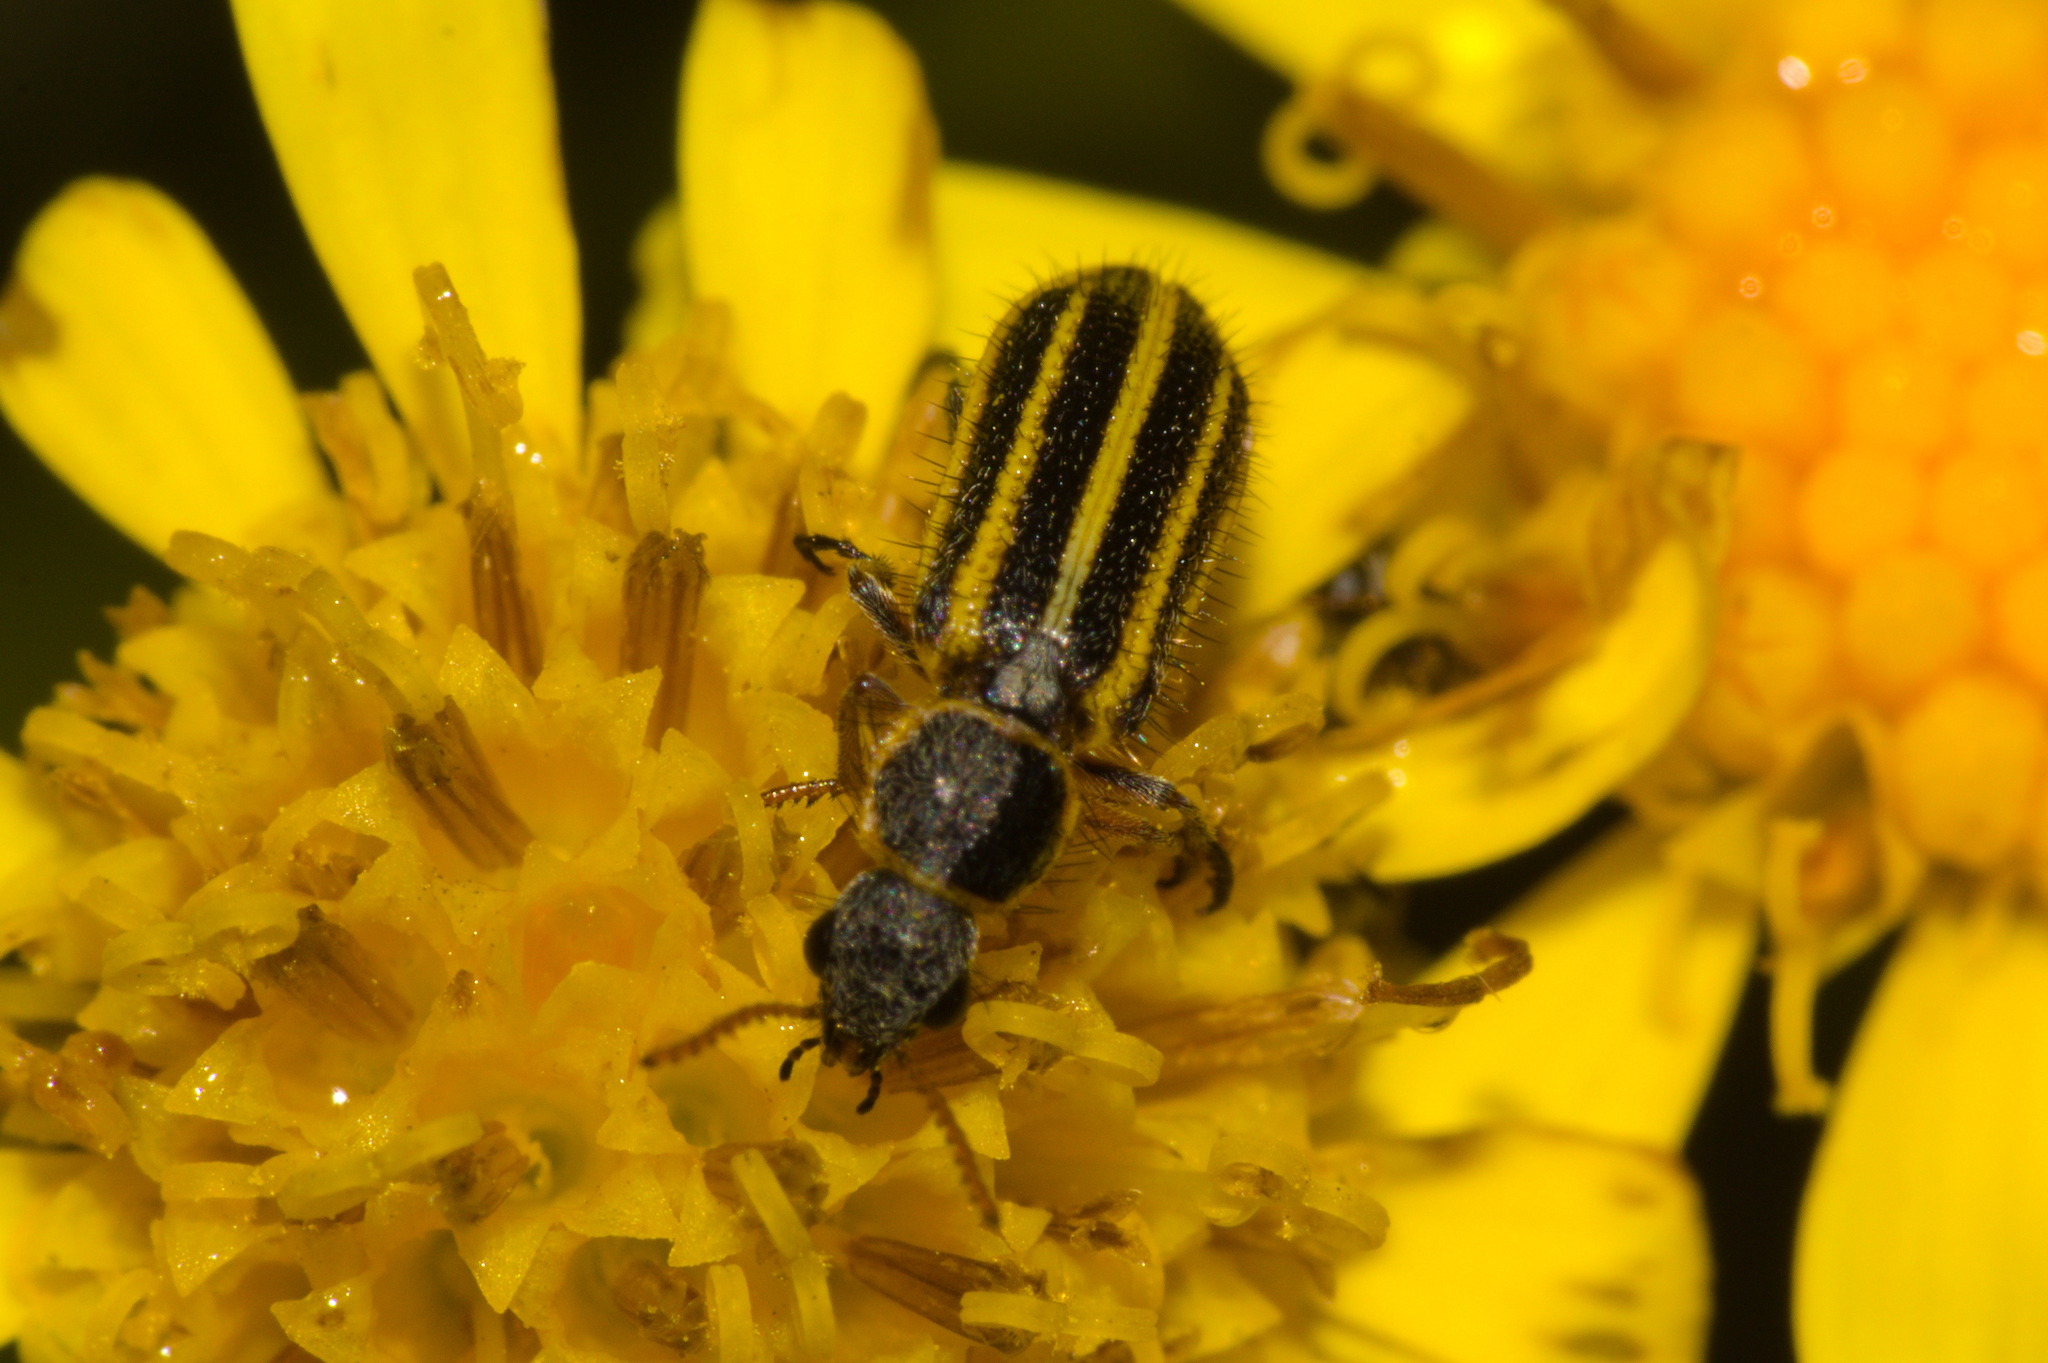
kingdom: Animalia
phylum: Arthropoda
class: Insecta
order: Coleoptera
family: Melyridae
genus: Astylus
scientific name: Astylus
